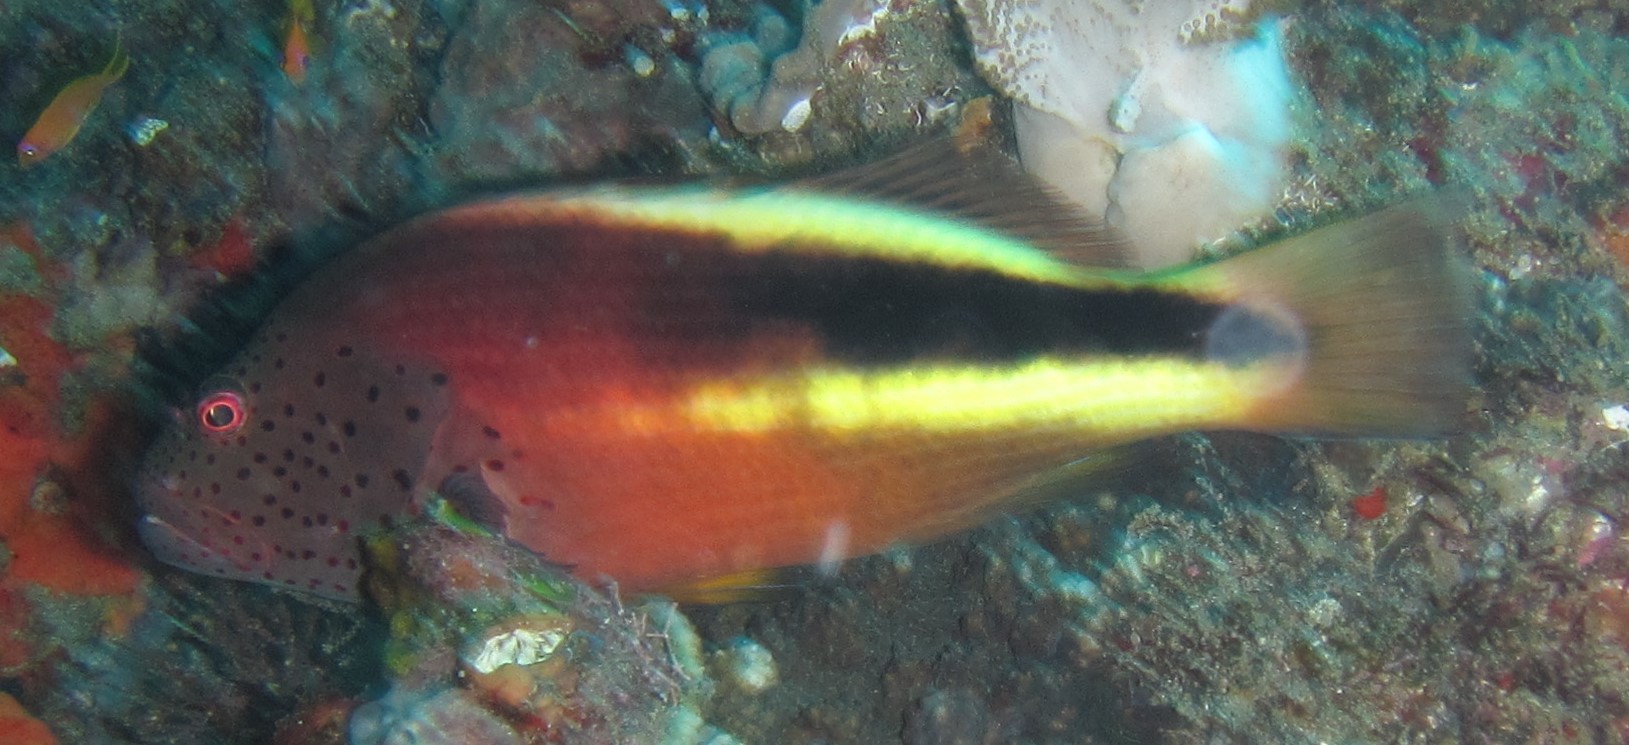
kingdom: Animalia
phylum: Chordata
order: Perciformes
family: Cirrhitidae
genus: Paracirrhites
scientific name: Paracirrhites forsteri
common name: Freckled hawkfish
